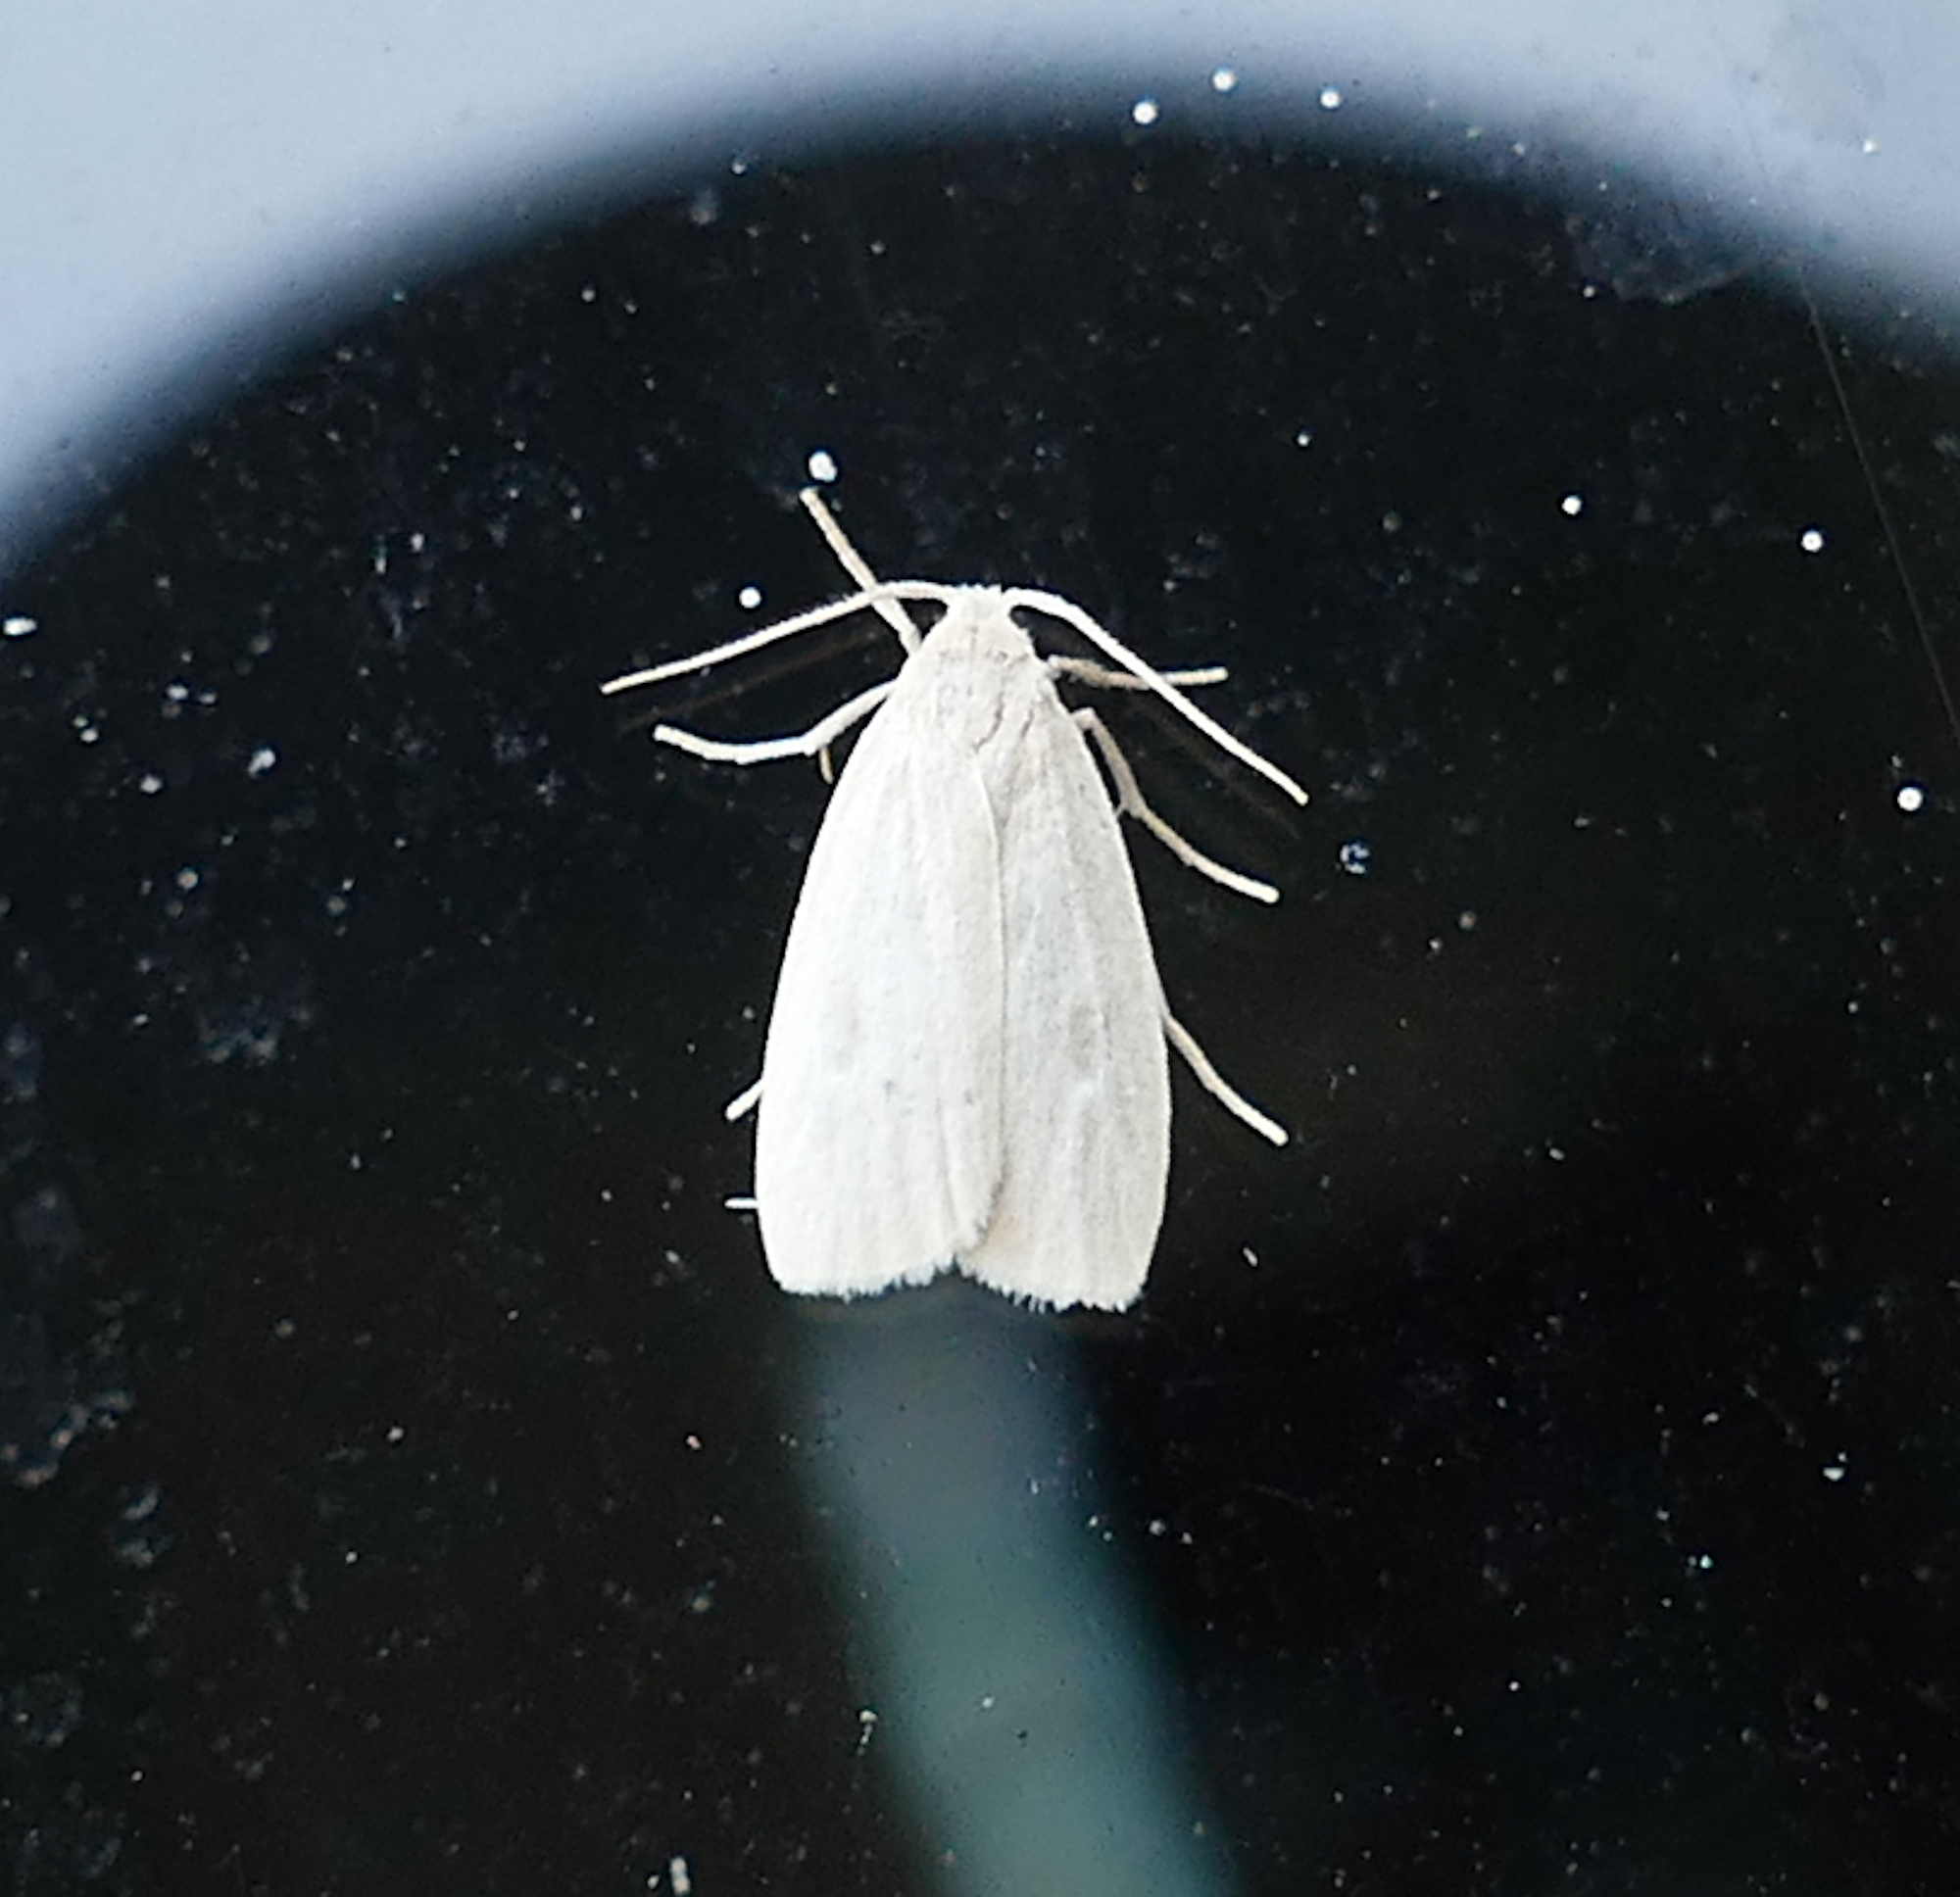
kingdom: Animalia
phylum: Arthropoda
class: Insecta
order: Lepidoptera
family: Erebidae
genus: Crambidia
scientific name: Crambidia pallida
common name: Pale lichen moth
